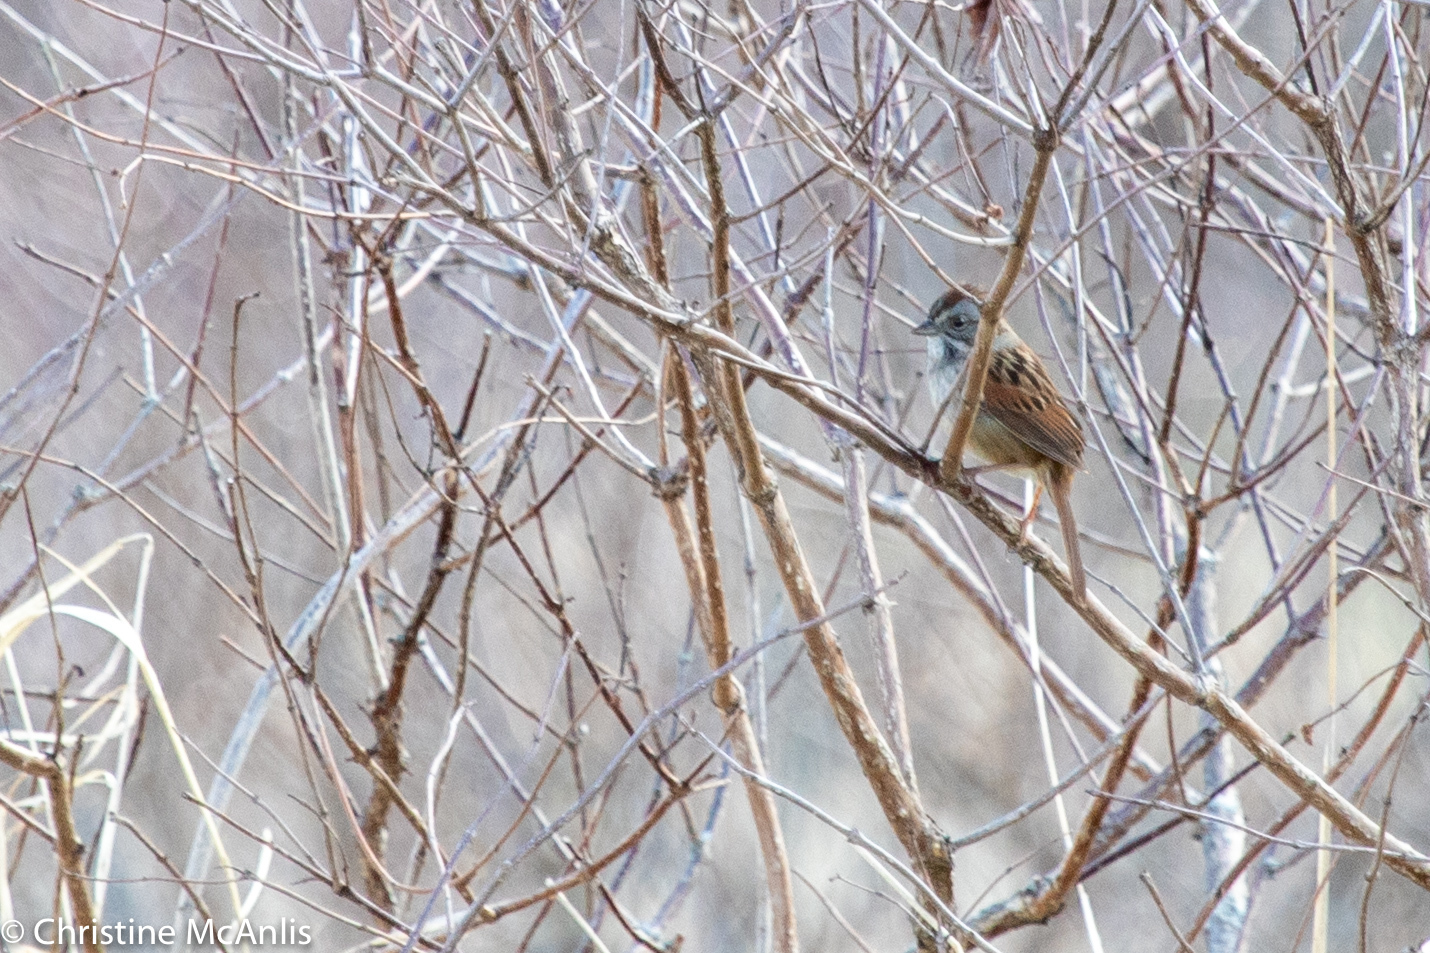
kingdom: Animalia
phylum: Chordata
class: Aves
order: Passeriformes
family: Passerellidae
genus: Melospiza
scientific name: Melospiza georgiana
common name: Swamp sparrow
